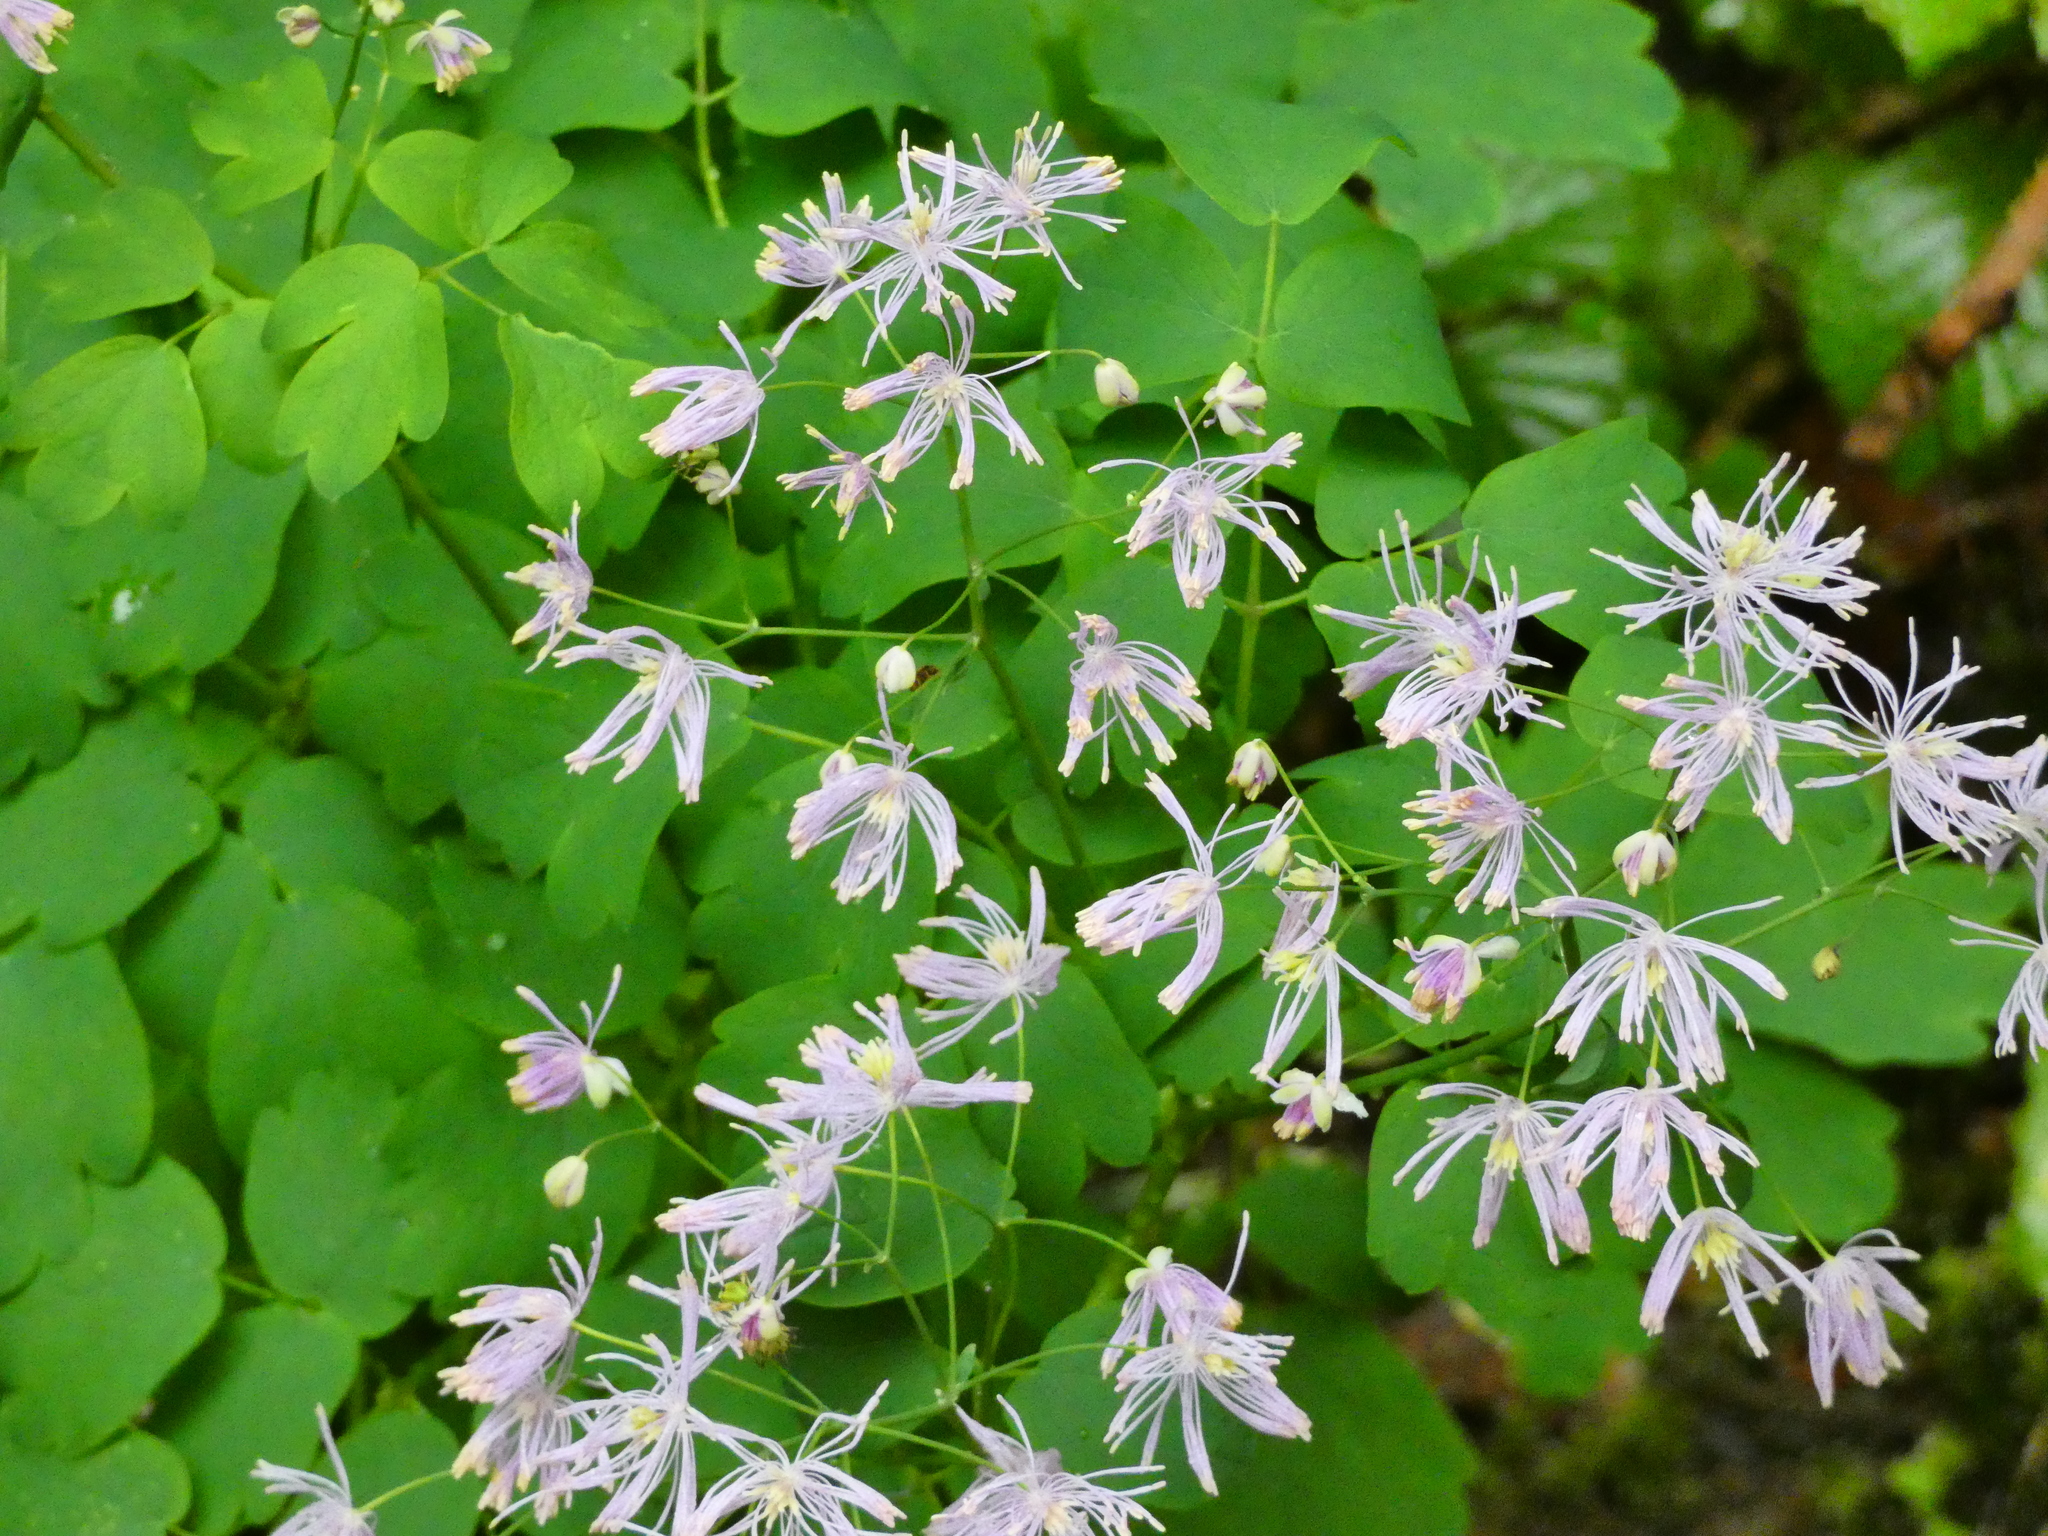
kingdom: Plantae
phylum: Tracheophyta
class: Magnoliopsida
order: Ranunculales
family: Ranunculaceae
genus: Thalictrum
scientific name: Thalictrum aquilegiifolium
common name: French meadow-rue
